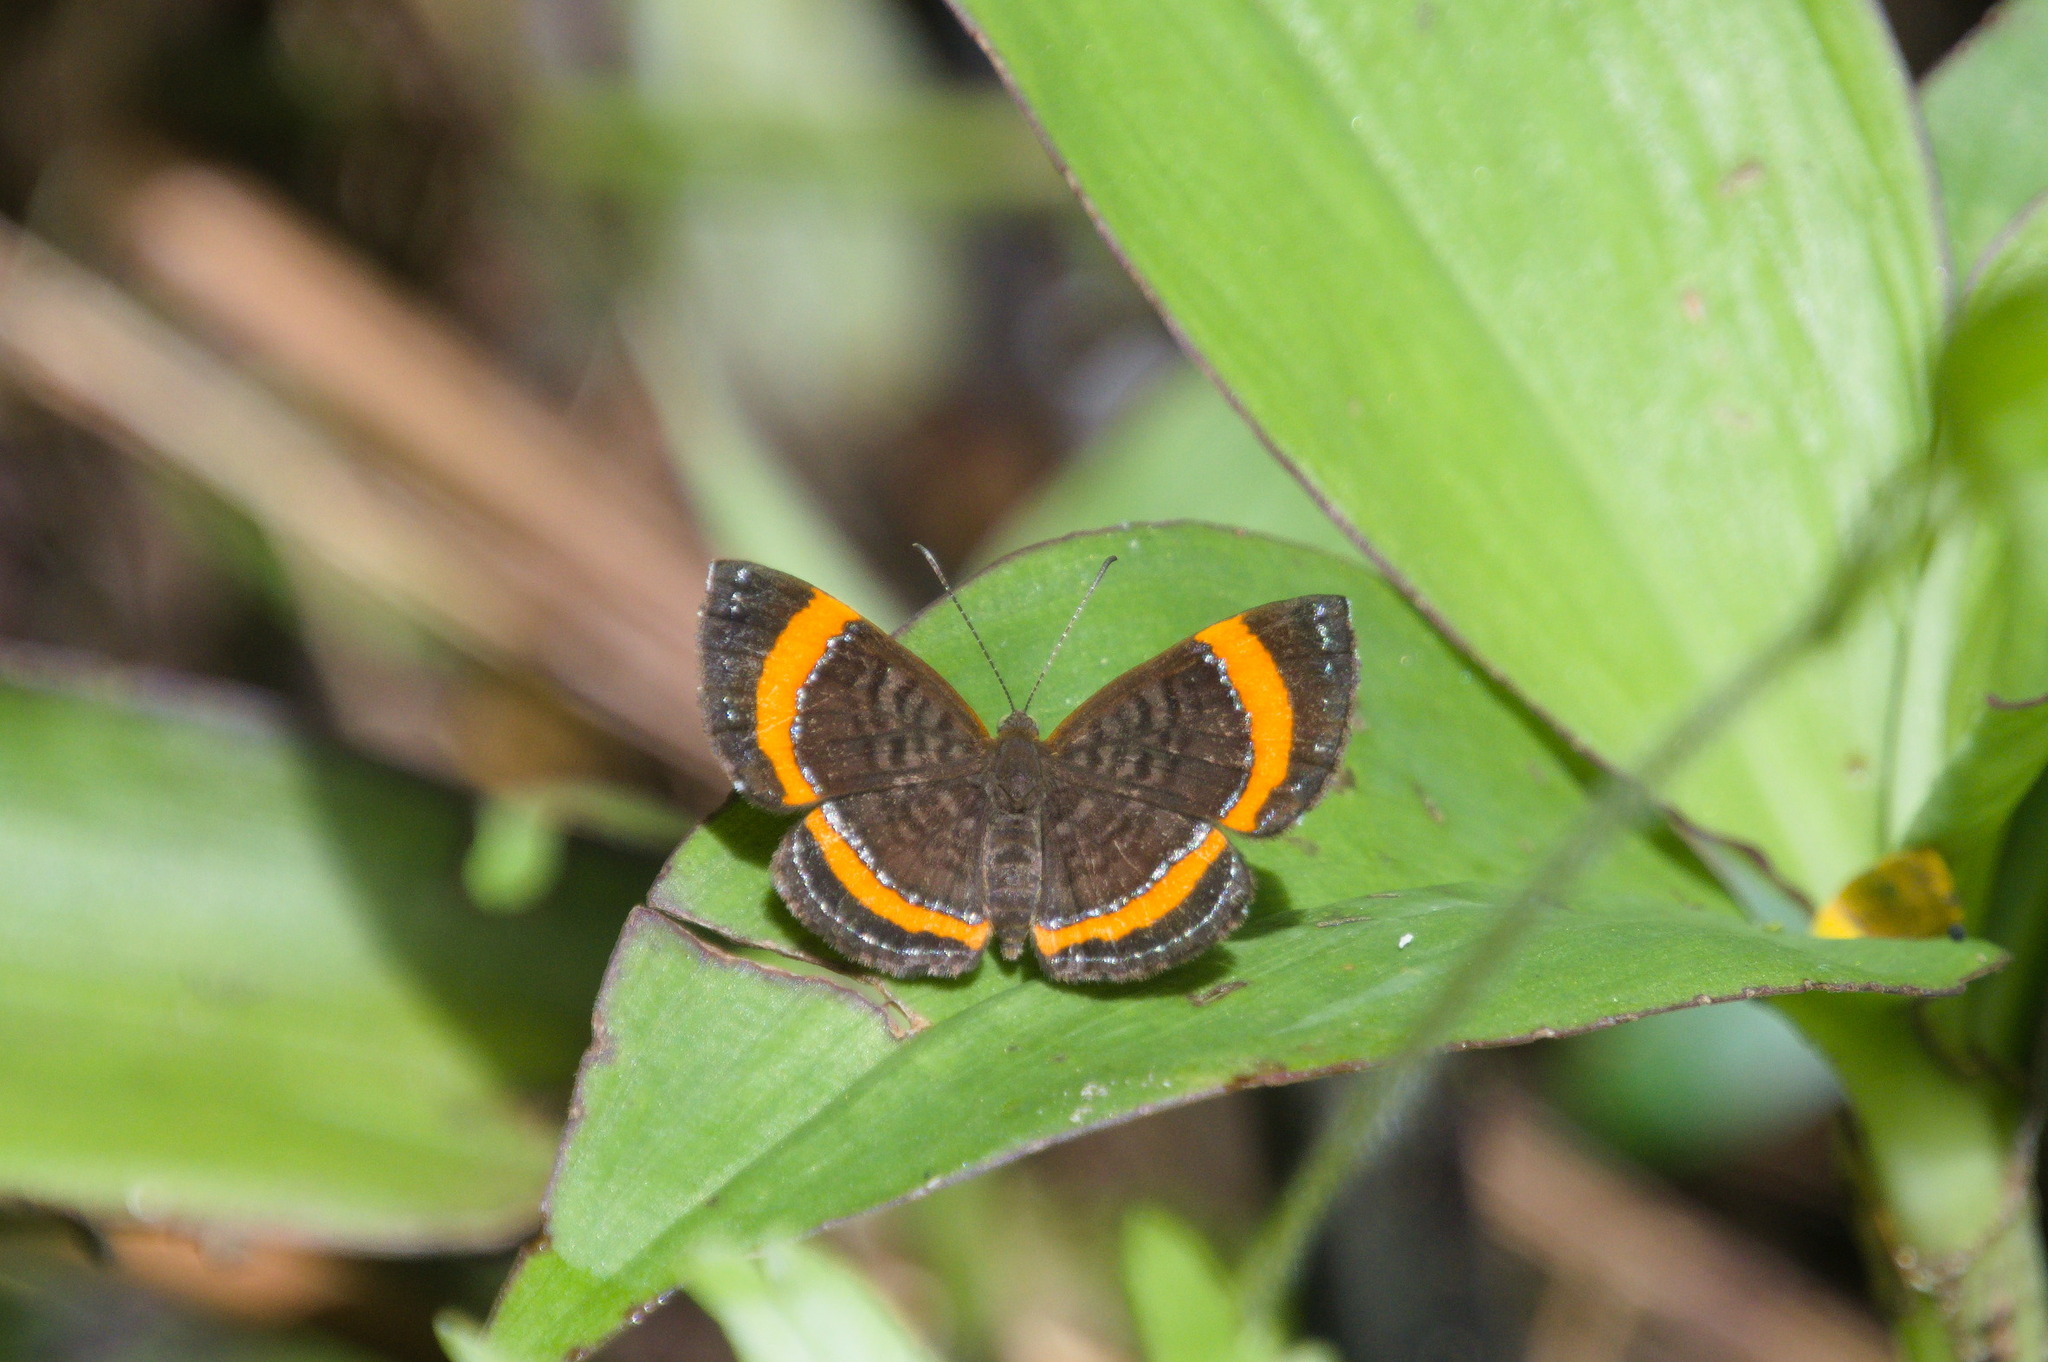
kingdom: Animalia
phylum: Arthropoda
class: Insecta
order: Lepidoptera
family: Riodinidae
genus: Crocozona
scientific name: Crocozona coecias
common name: Orange-banded gem
